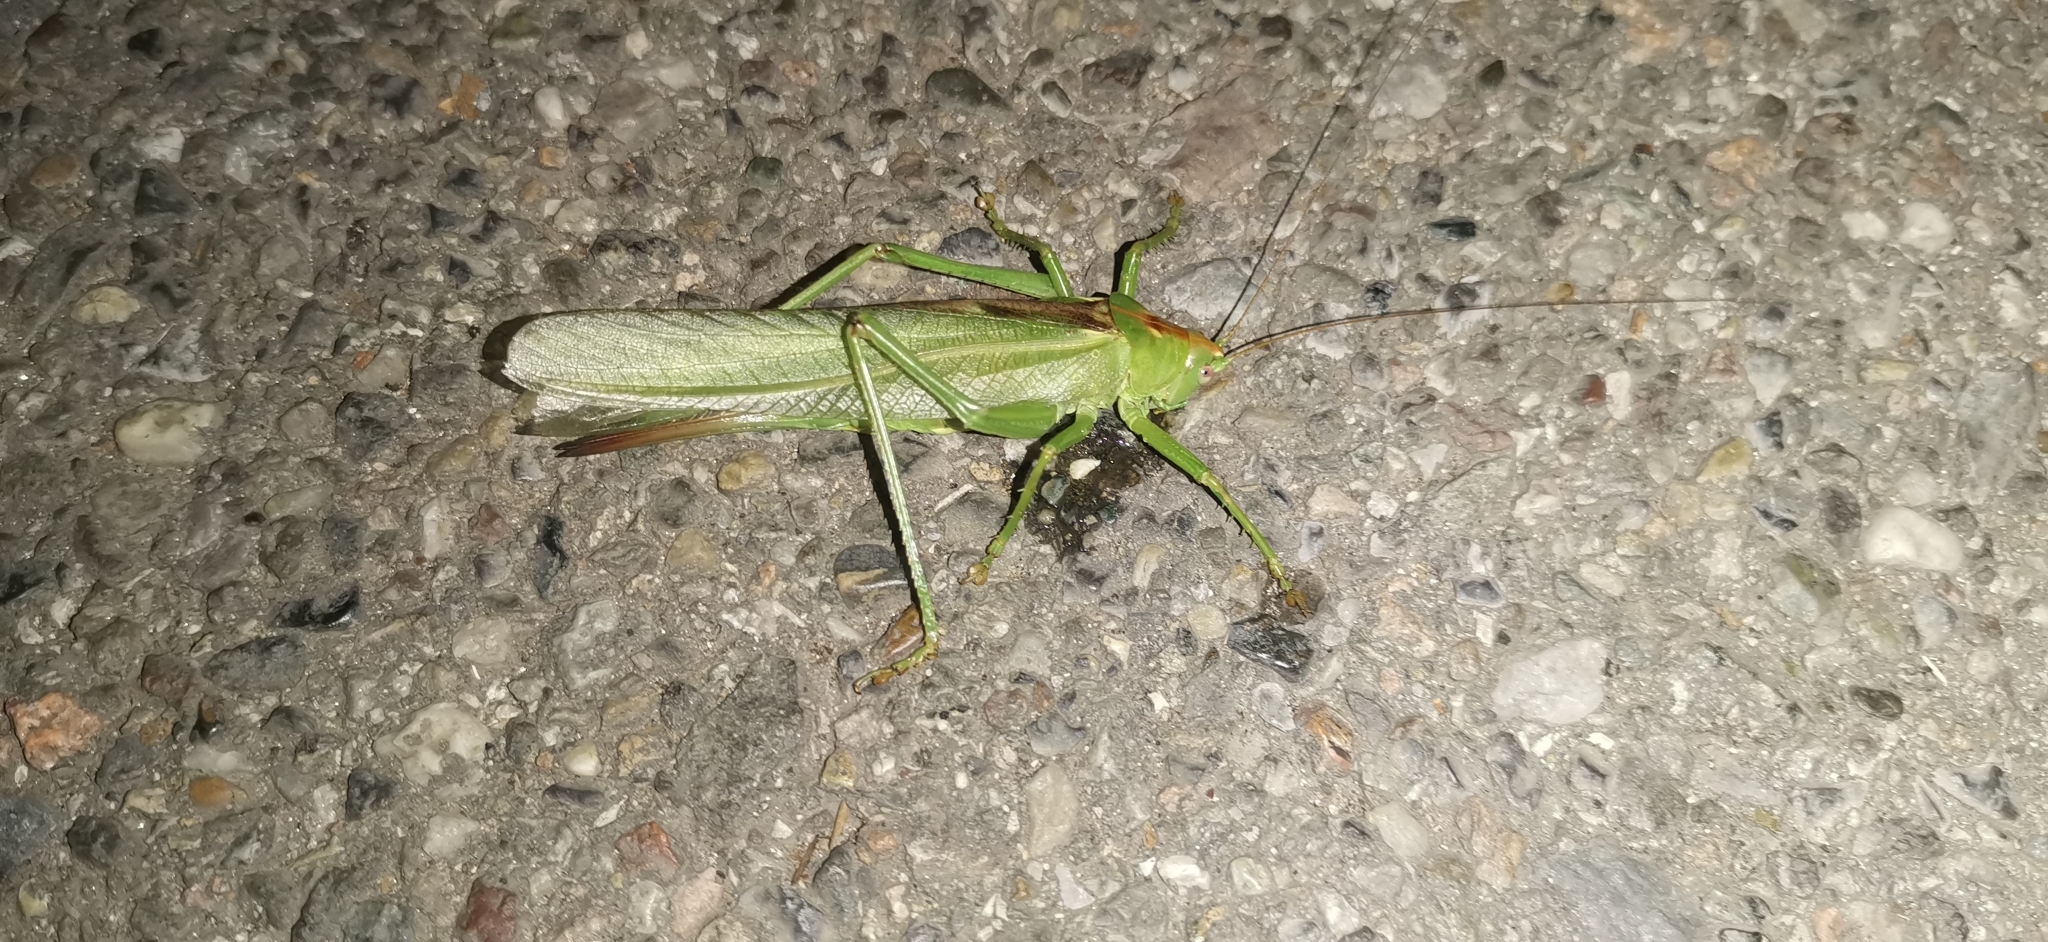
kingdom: Animalia
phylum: Arthropoda
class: Insecta
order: Orthoptera
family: Tettigoniidae
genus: Tettigonia
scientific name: Tettigonia viridissima
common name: Great green bush-cricket
